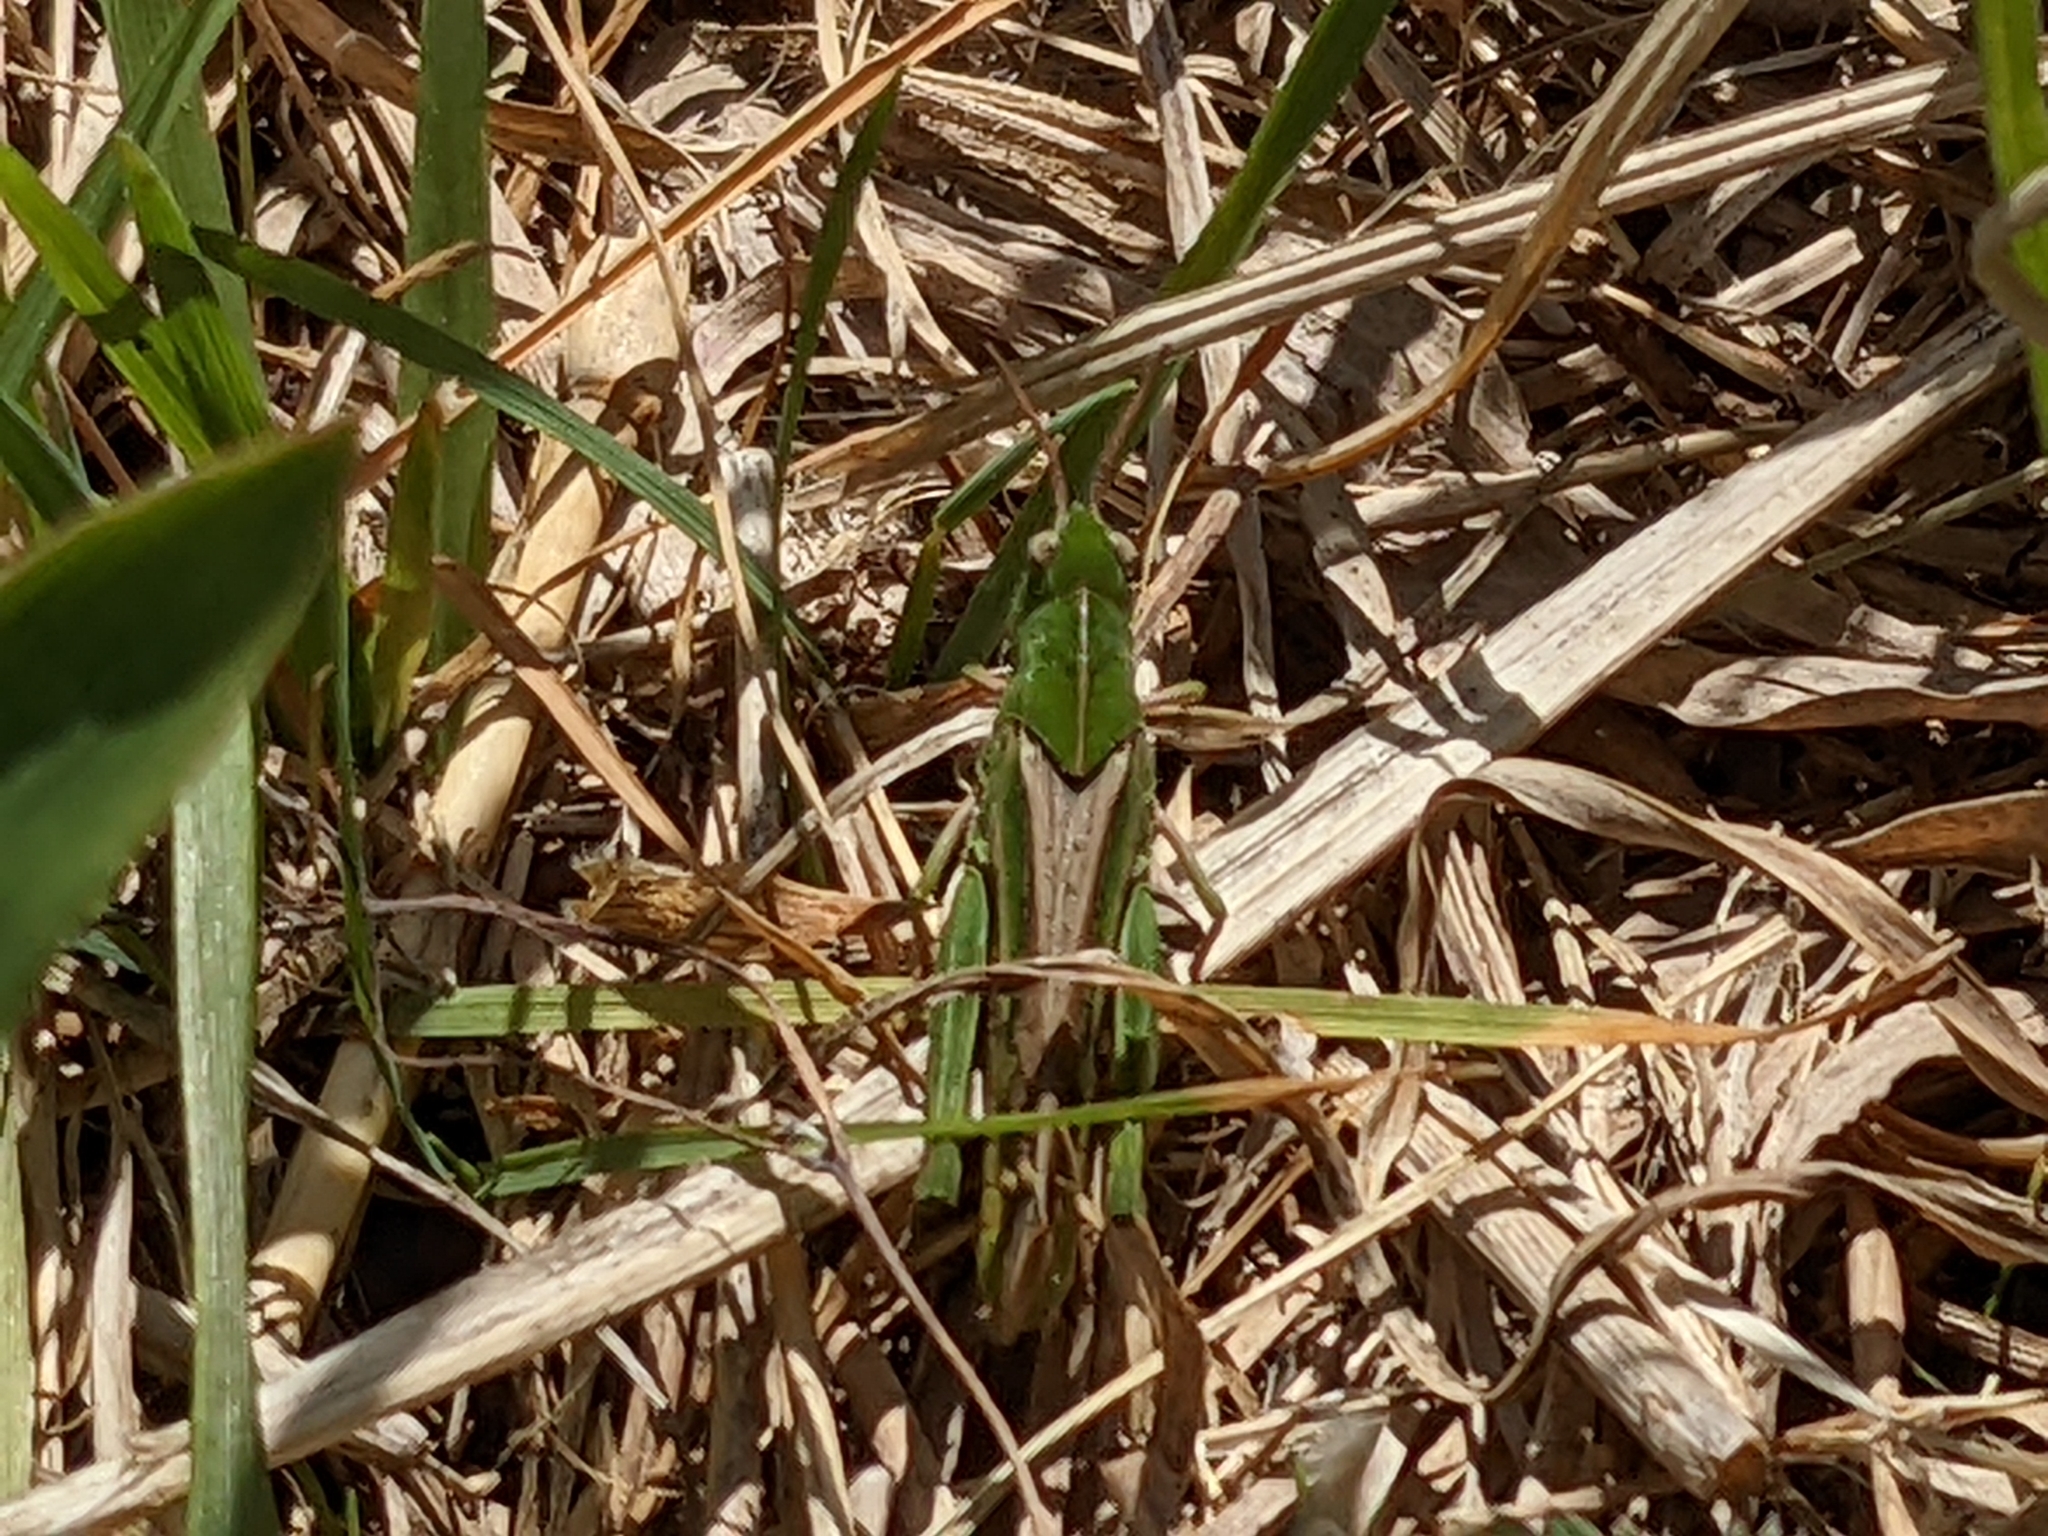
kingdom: Animalia
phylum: Arthropoda
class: Insecta
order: Orthoptera
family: Acrididae
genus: Chortophaga
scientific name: Chortophaga viridifasciata
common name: Green-striped grasshopper
